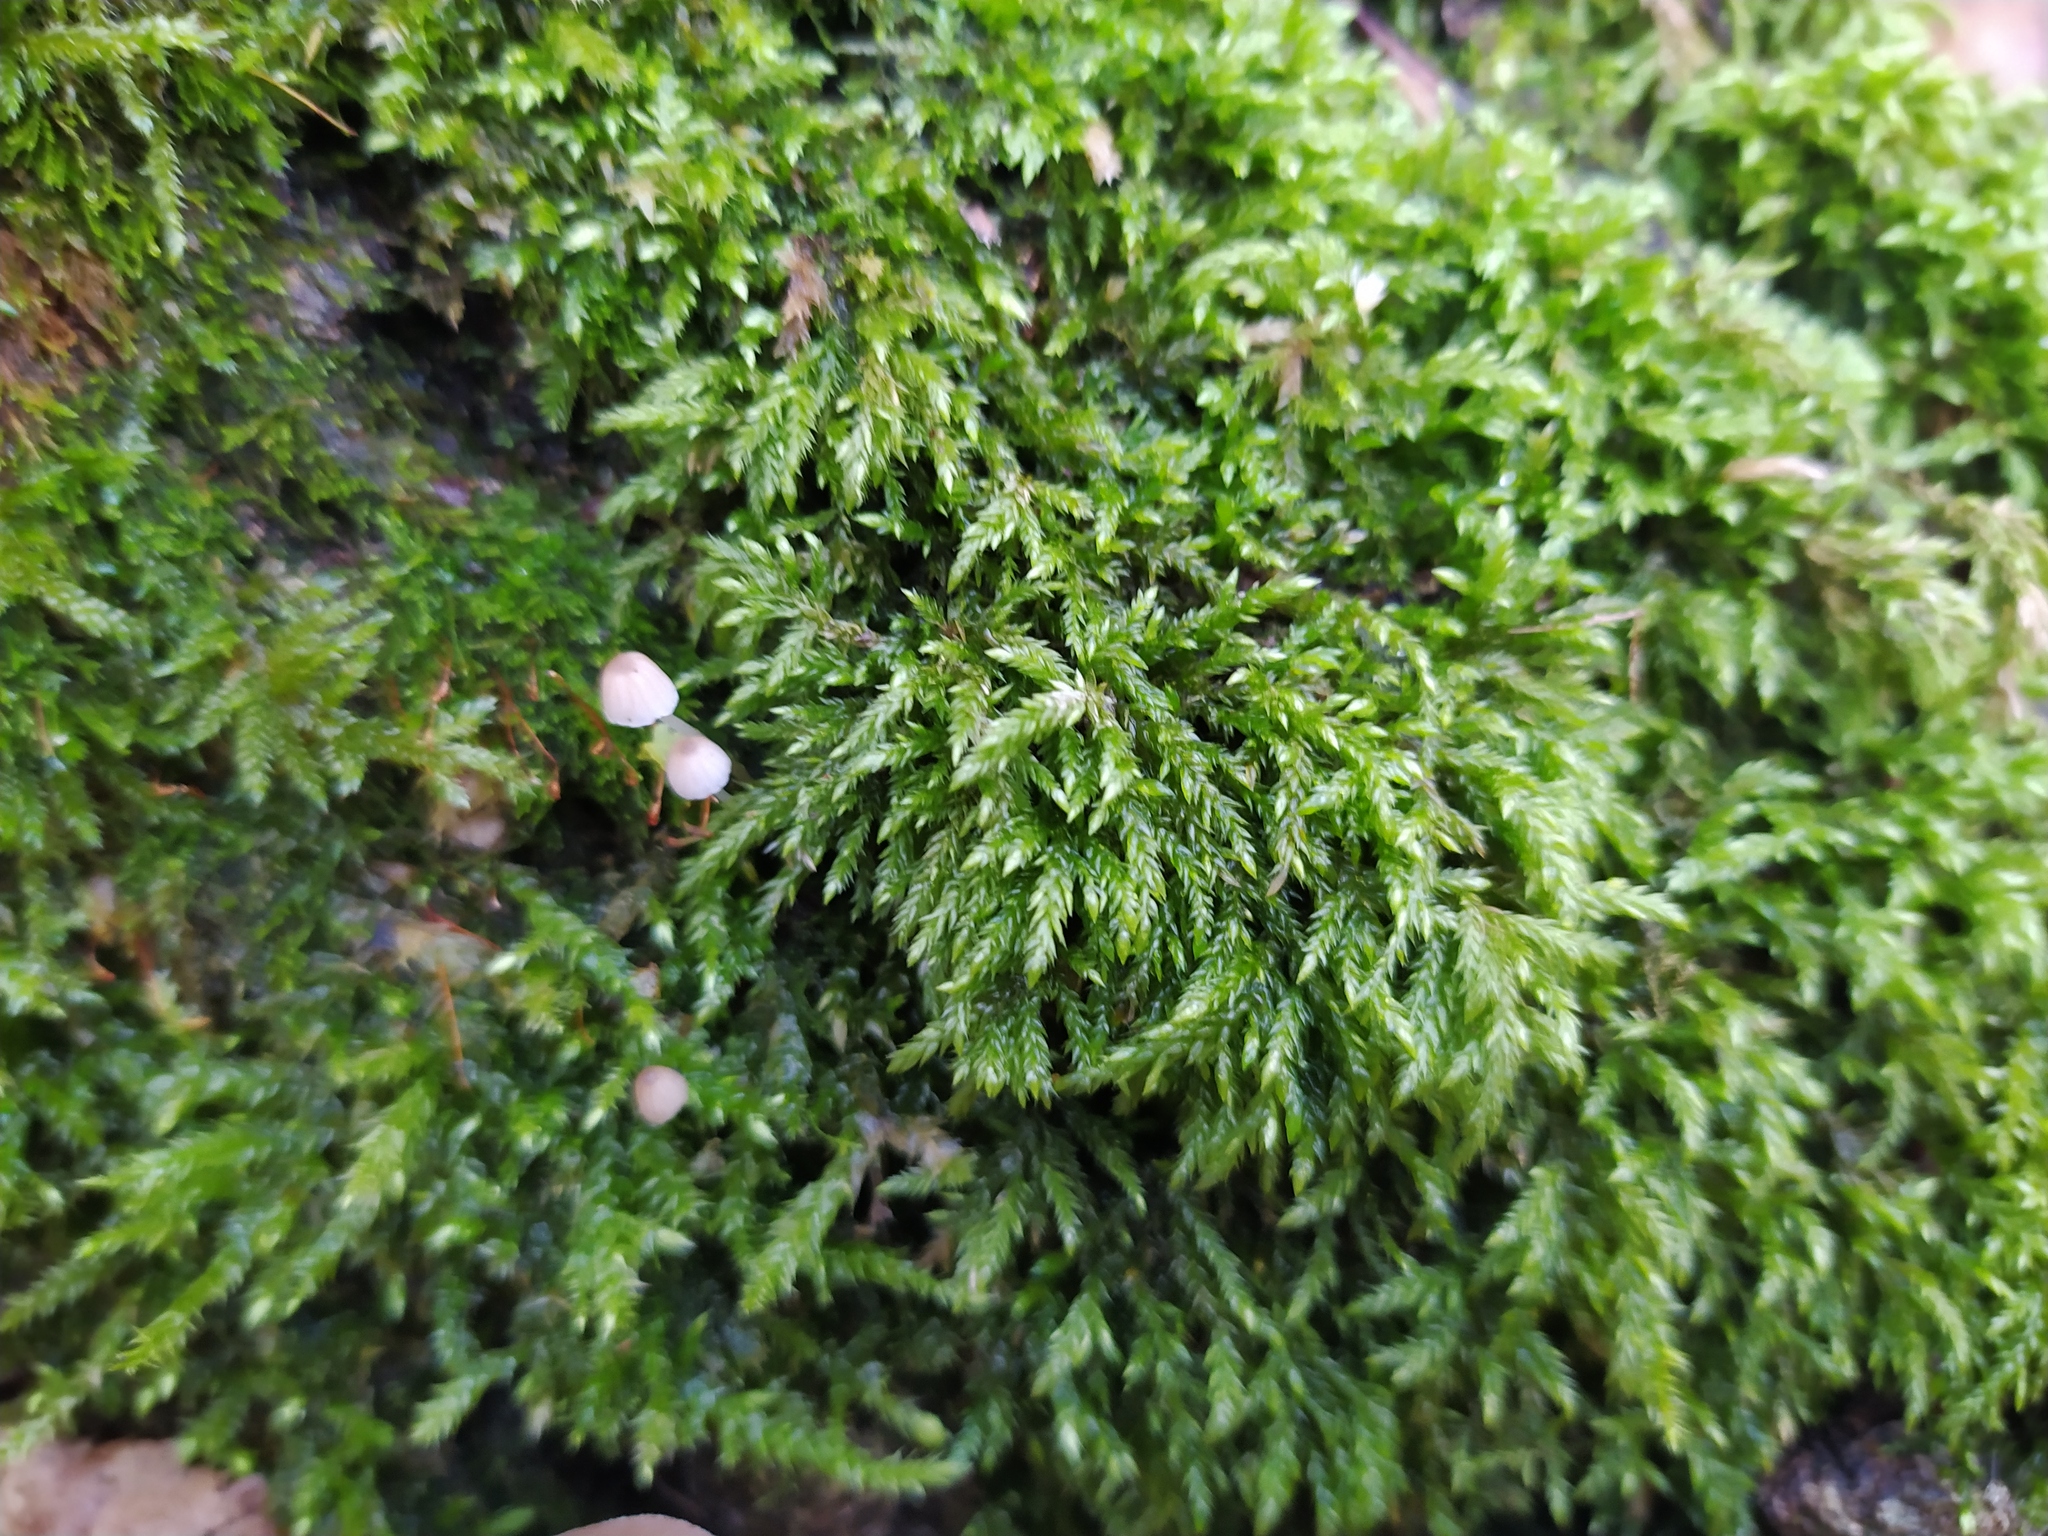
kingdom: Plantae
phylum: Bryophyta
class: Bryopsida
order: Hypnales
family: Lembophyllaceae
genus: Isothecium
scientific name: Isothecium alopecuroides
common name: Larger mouse-tail moss
